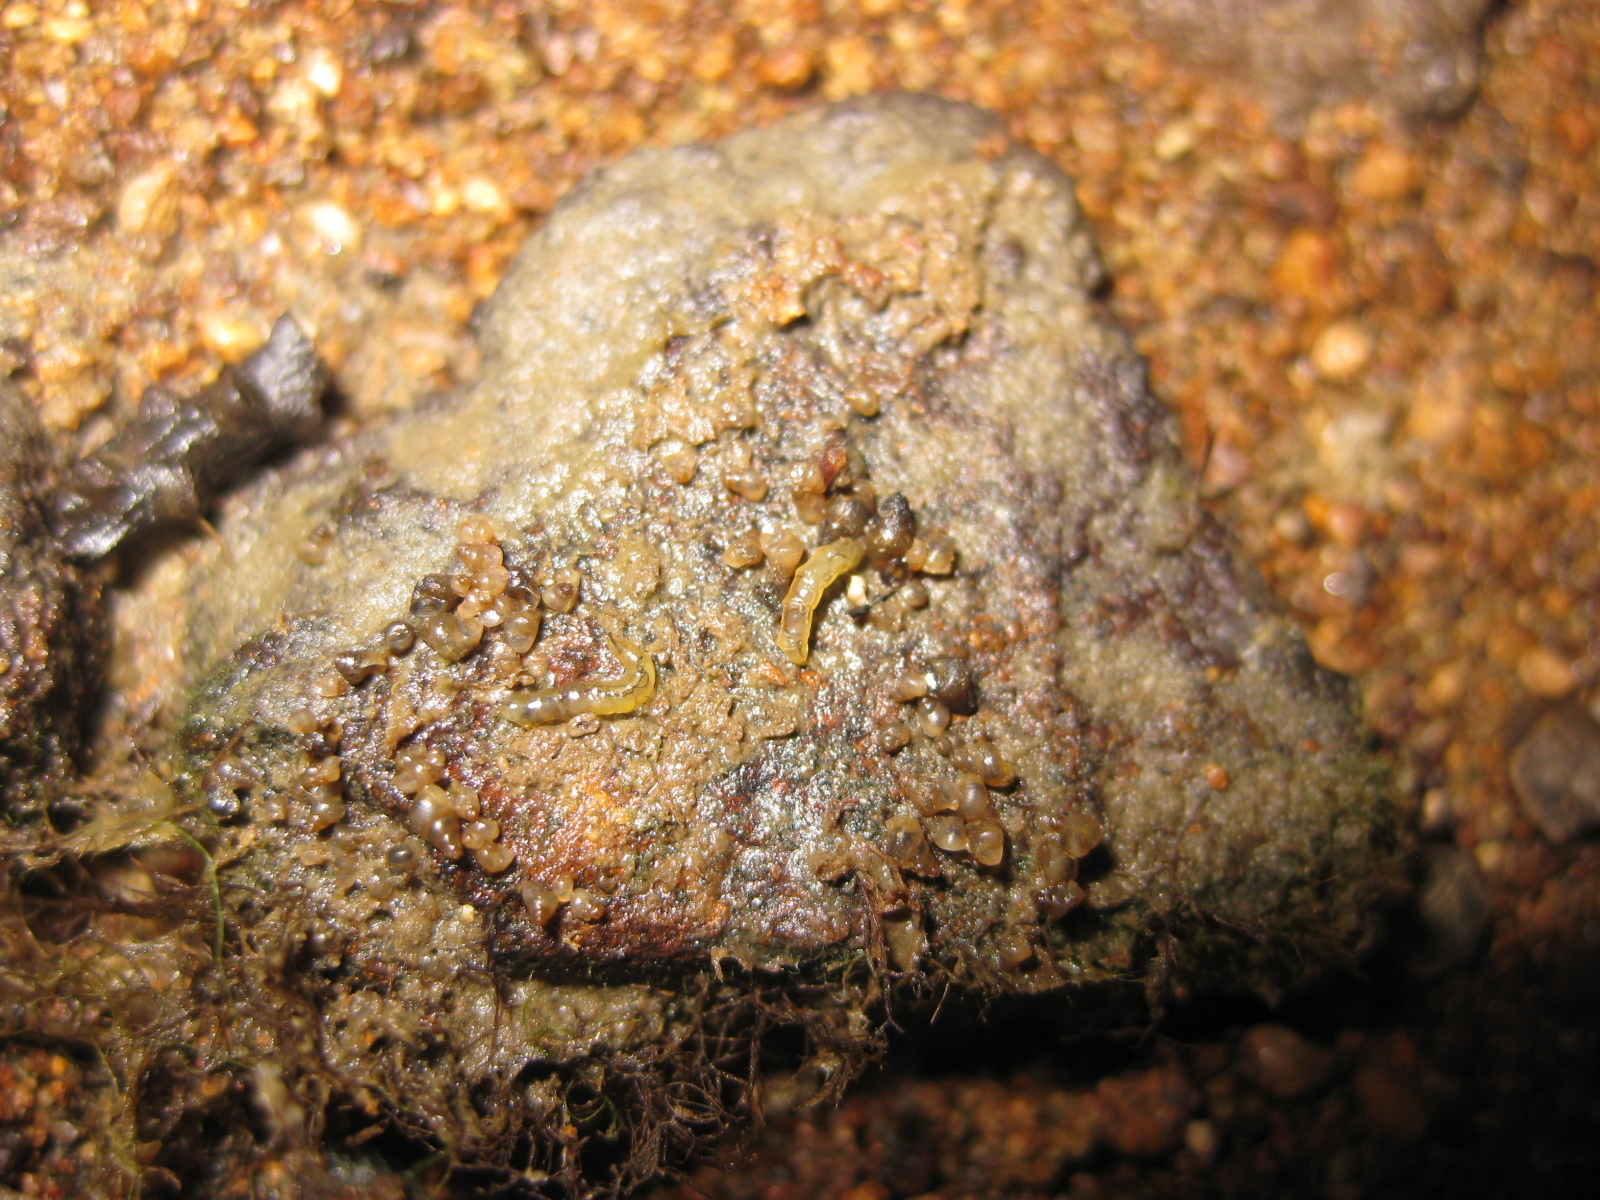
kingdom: Animalia
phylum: Mollusca
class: Gastropoda
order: Littorinimorpha
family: Tateidae
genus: Potamopyrgus
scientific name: Potamopyrgus estuarinus
